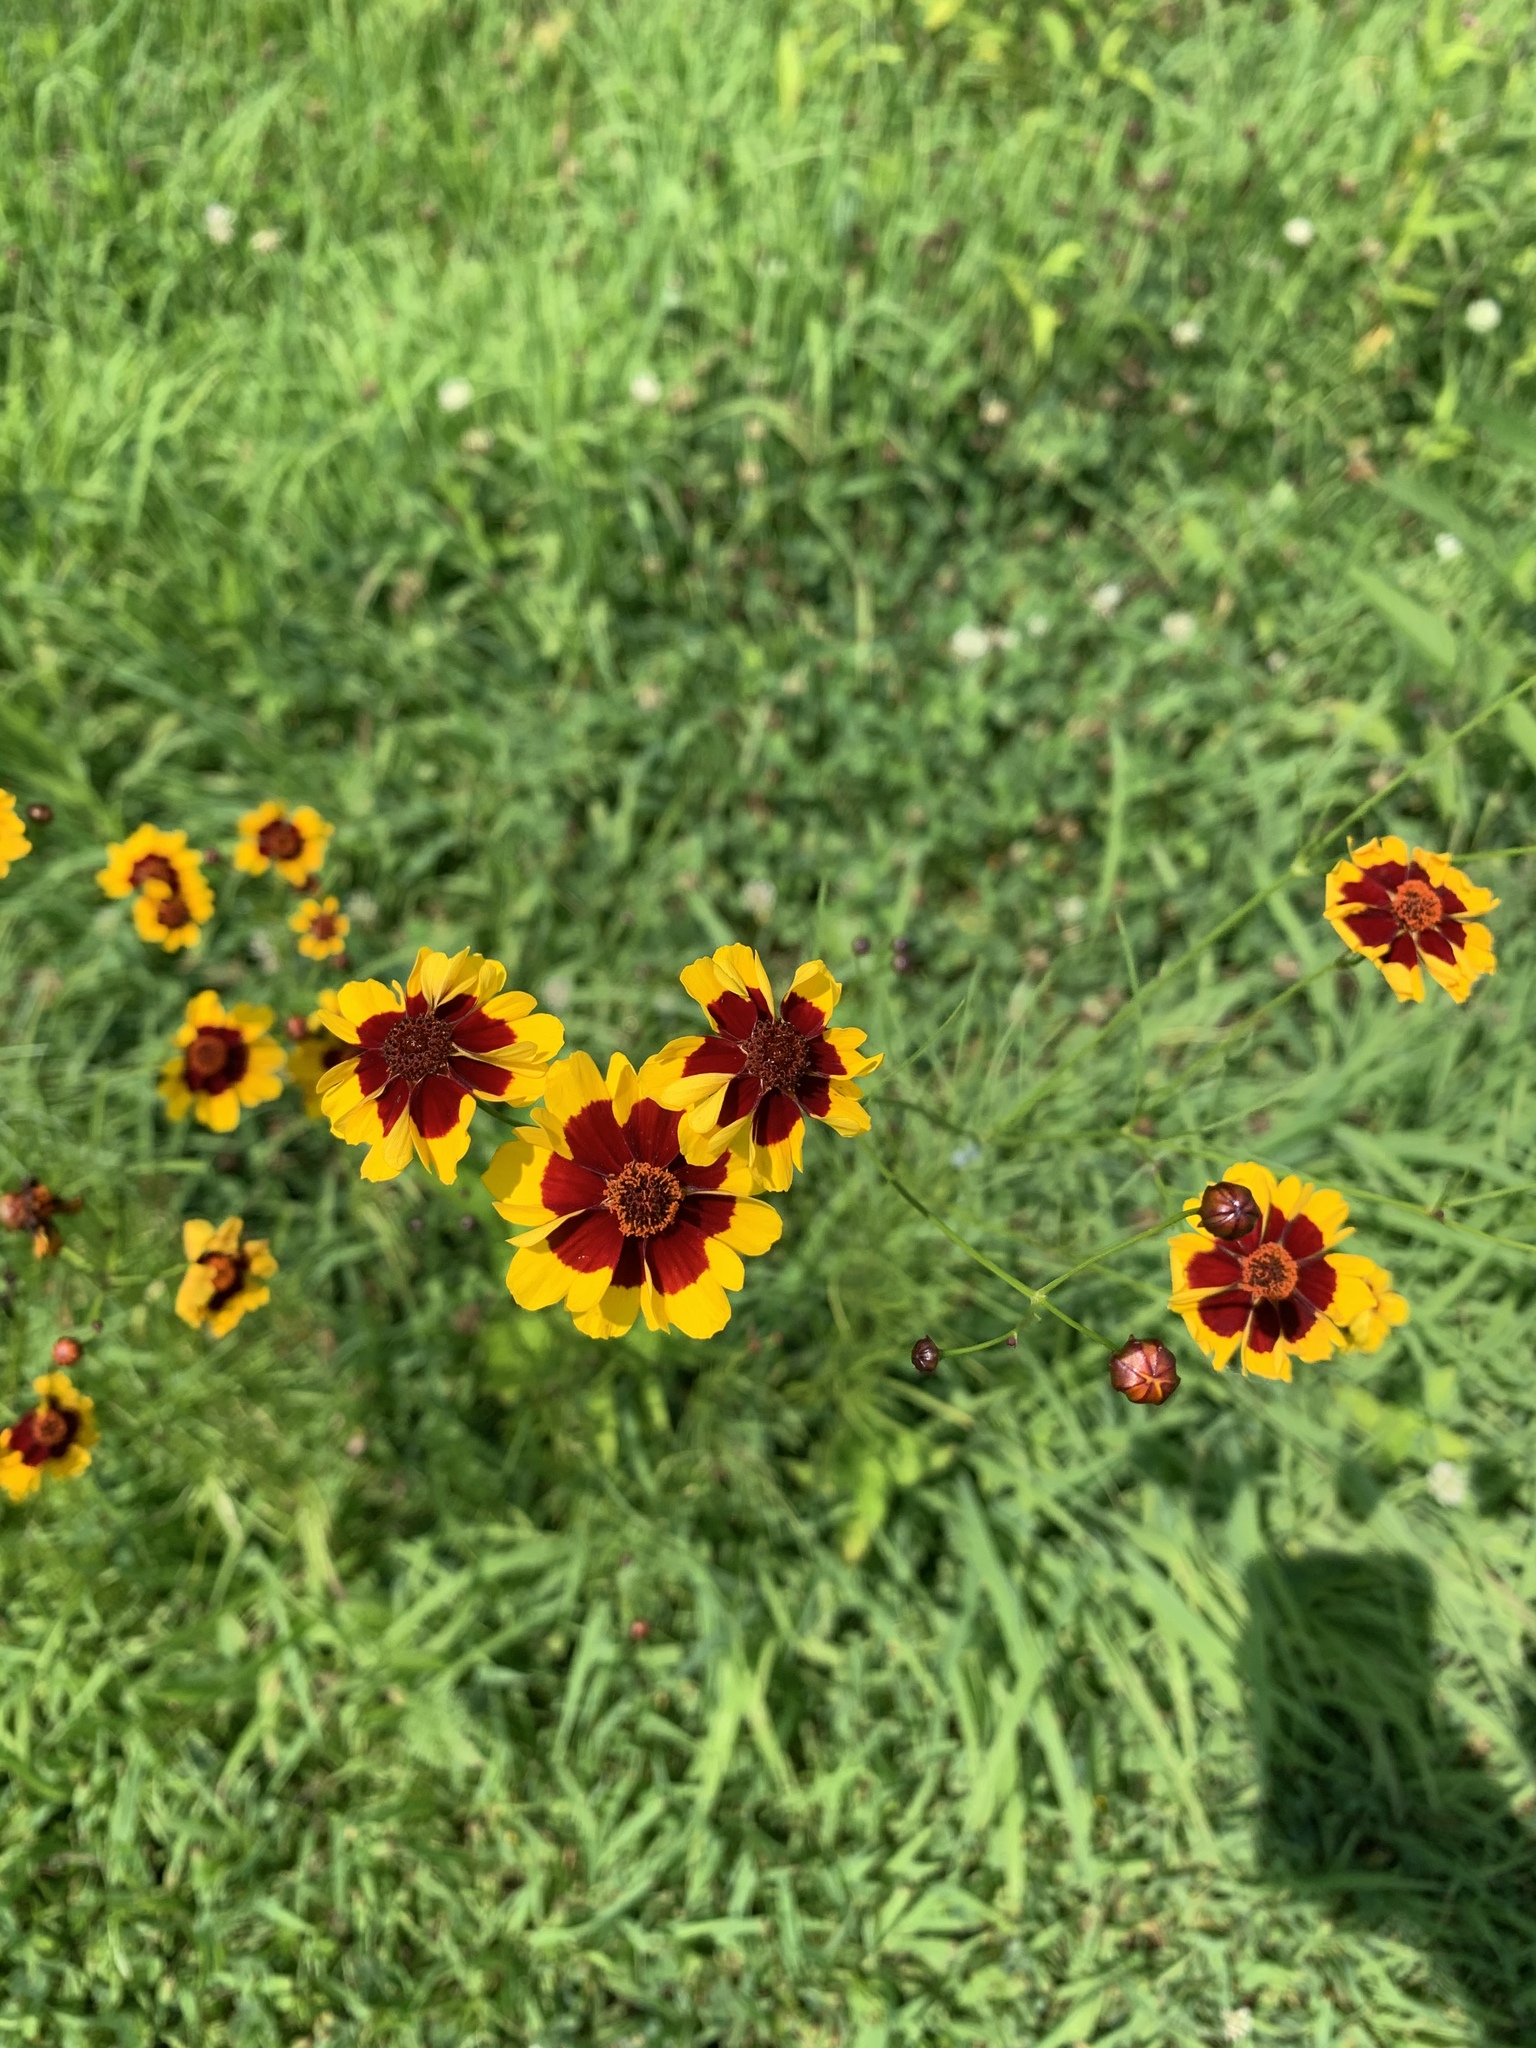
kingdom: Plantae
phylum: Tracheophyta
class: Magnoliopsida
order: Asterales
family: Asteraceae
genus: Coreopsis
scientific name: Coreopsis tinctoria
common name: Garden tickseed
